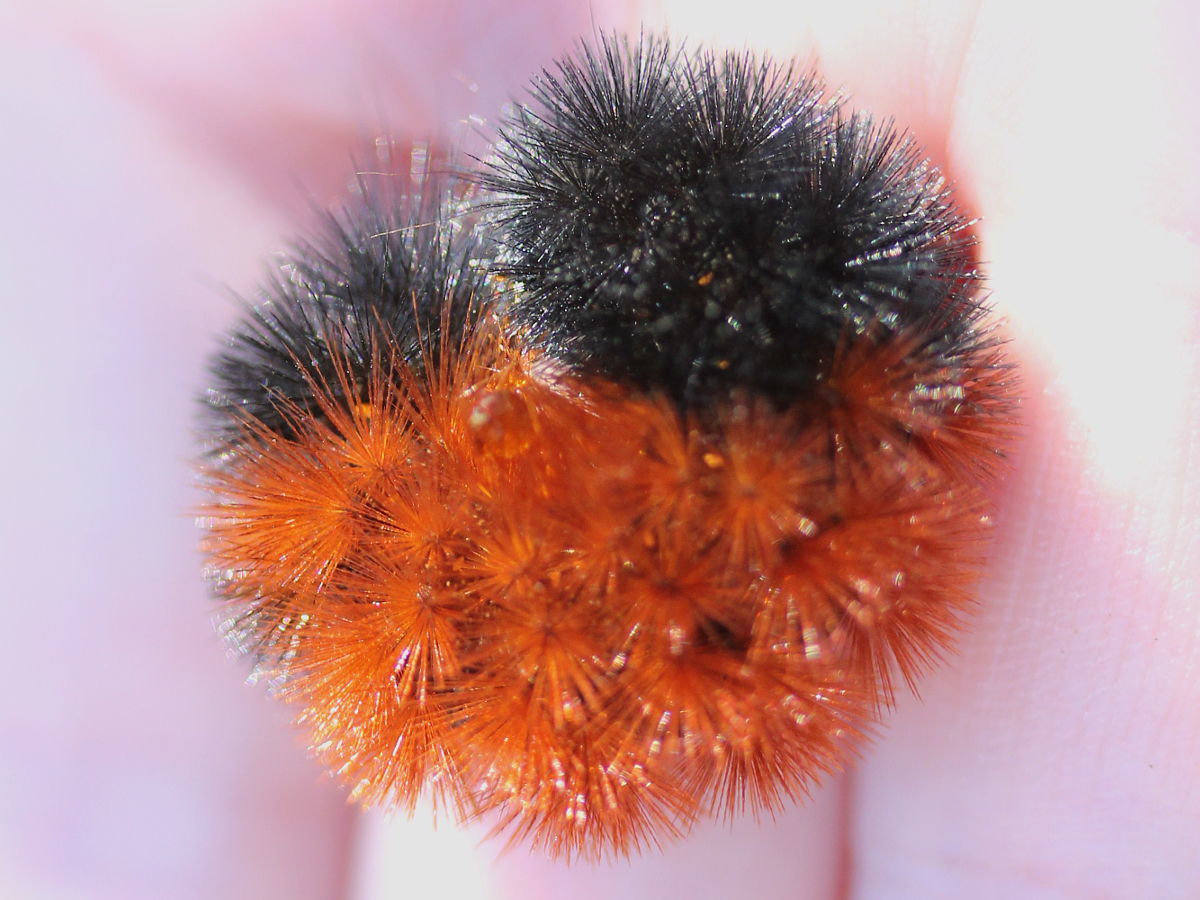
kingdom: Animalia
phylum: Arthropoda
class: Insecta
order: Lepidoptera
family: Erebidae
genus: Pyrrharctia
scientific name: Pyrrharctia isabella
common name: Isabella tiger moth
